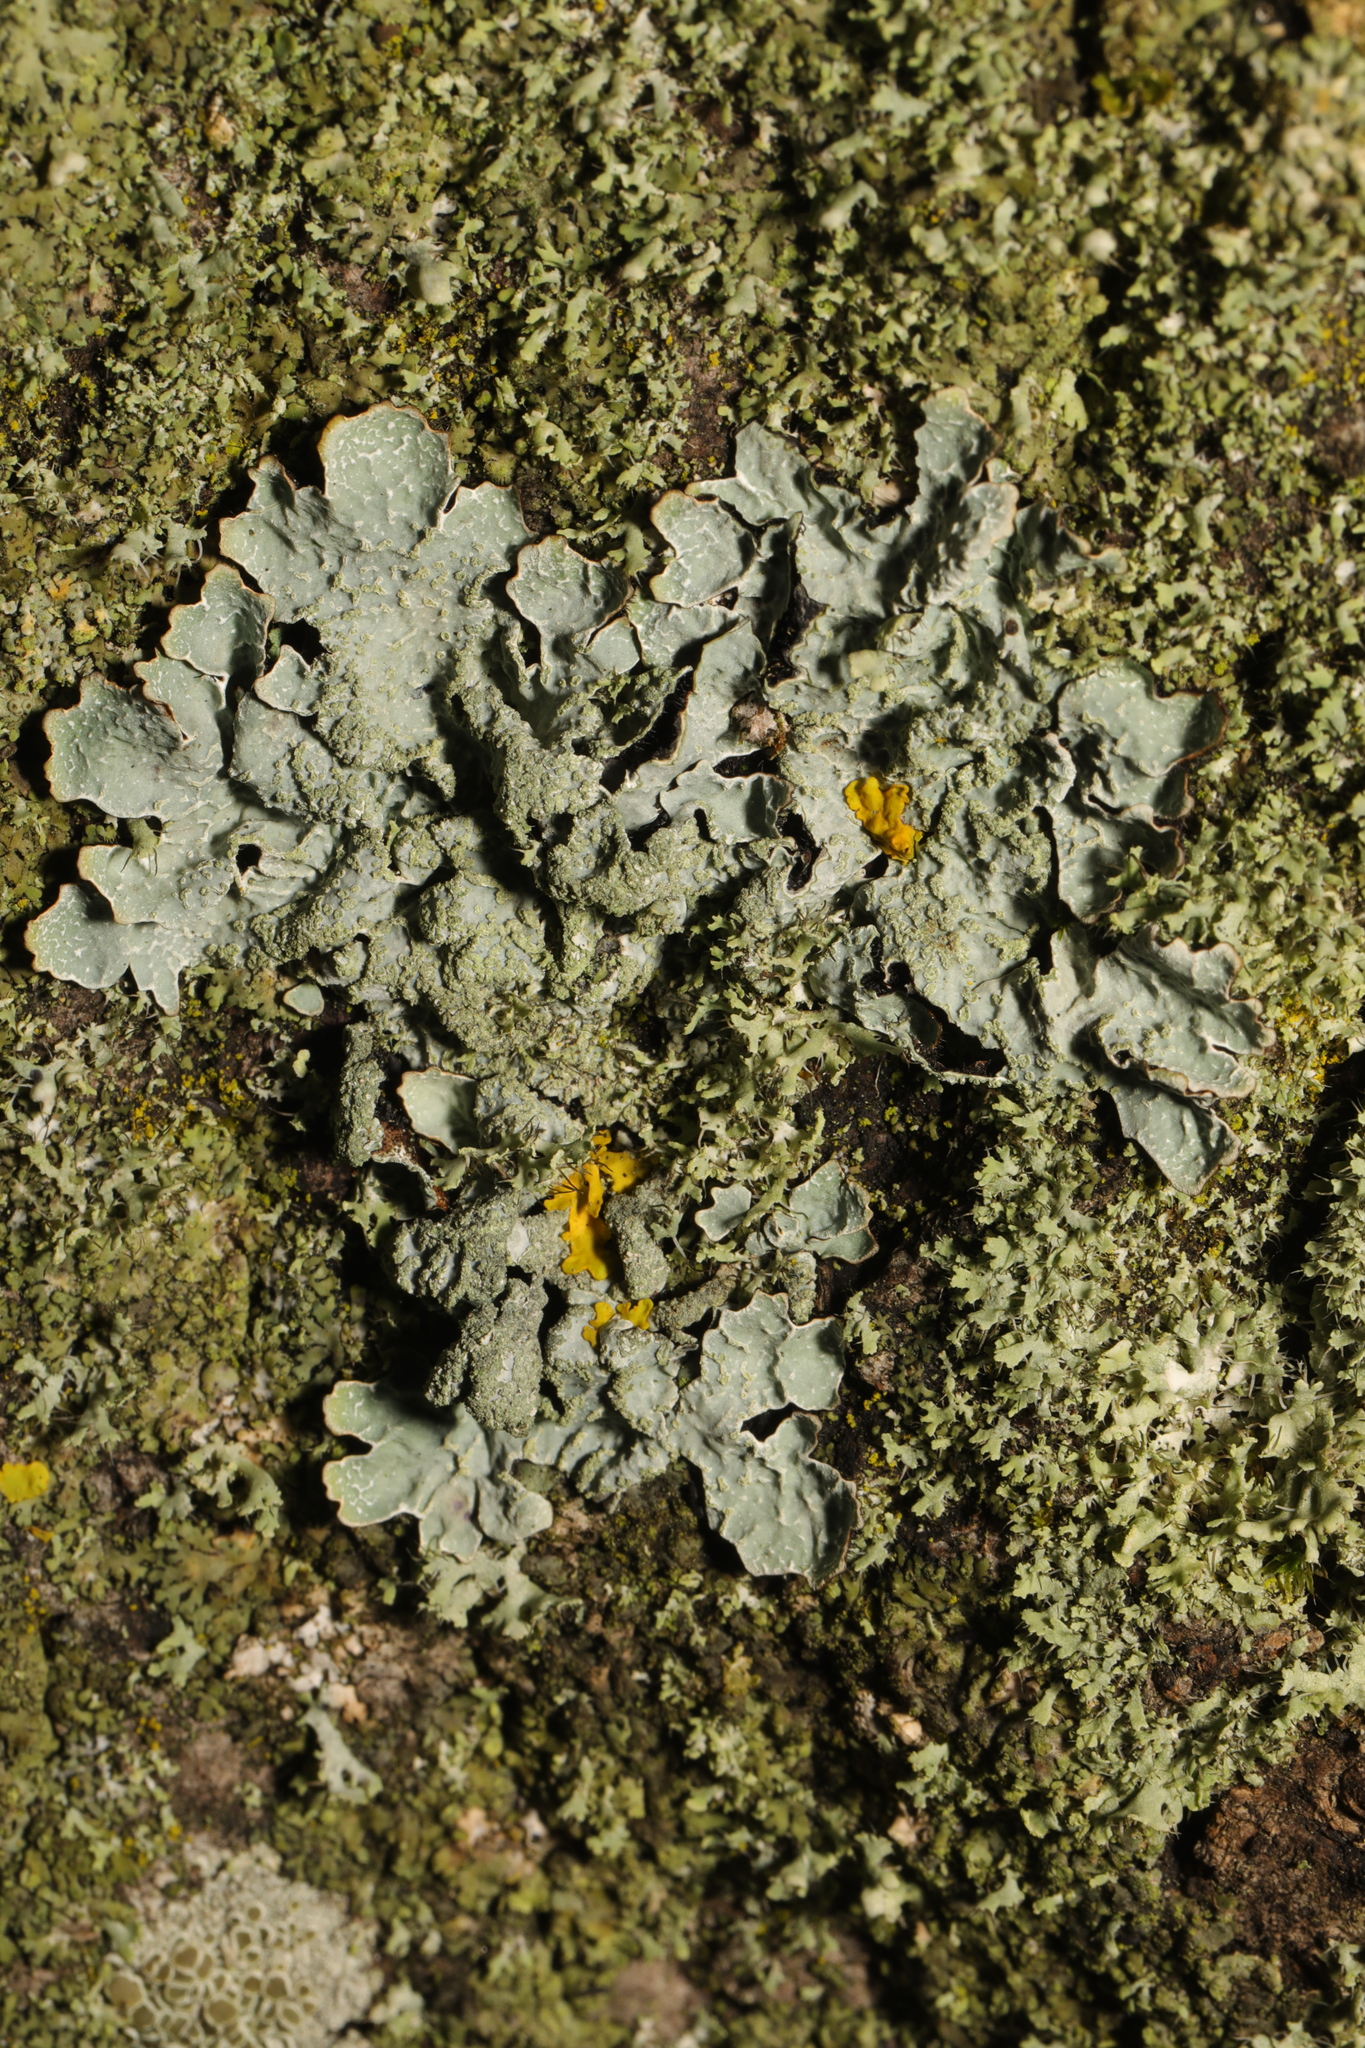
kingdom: Fungi
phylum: Ascomycota
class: Lecanoromycetes
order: Lecanorales
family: Parmeliaceae
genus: Parmelia
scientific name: Parmelia sulcata
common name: Netted shield lichen
